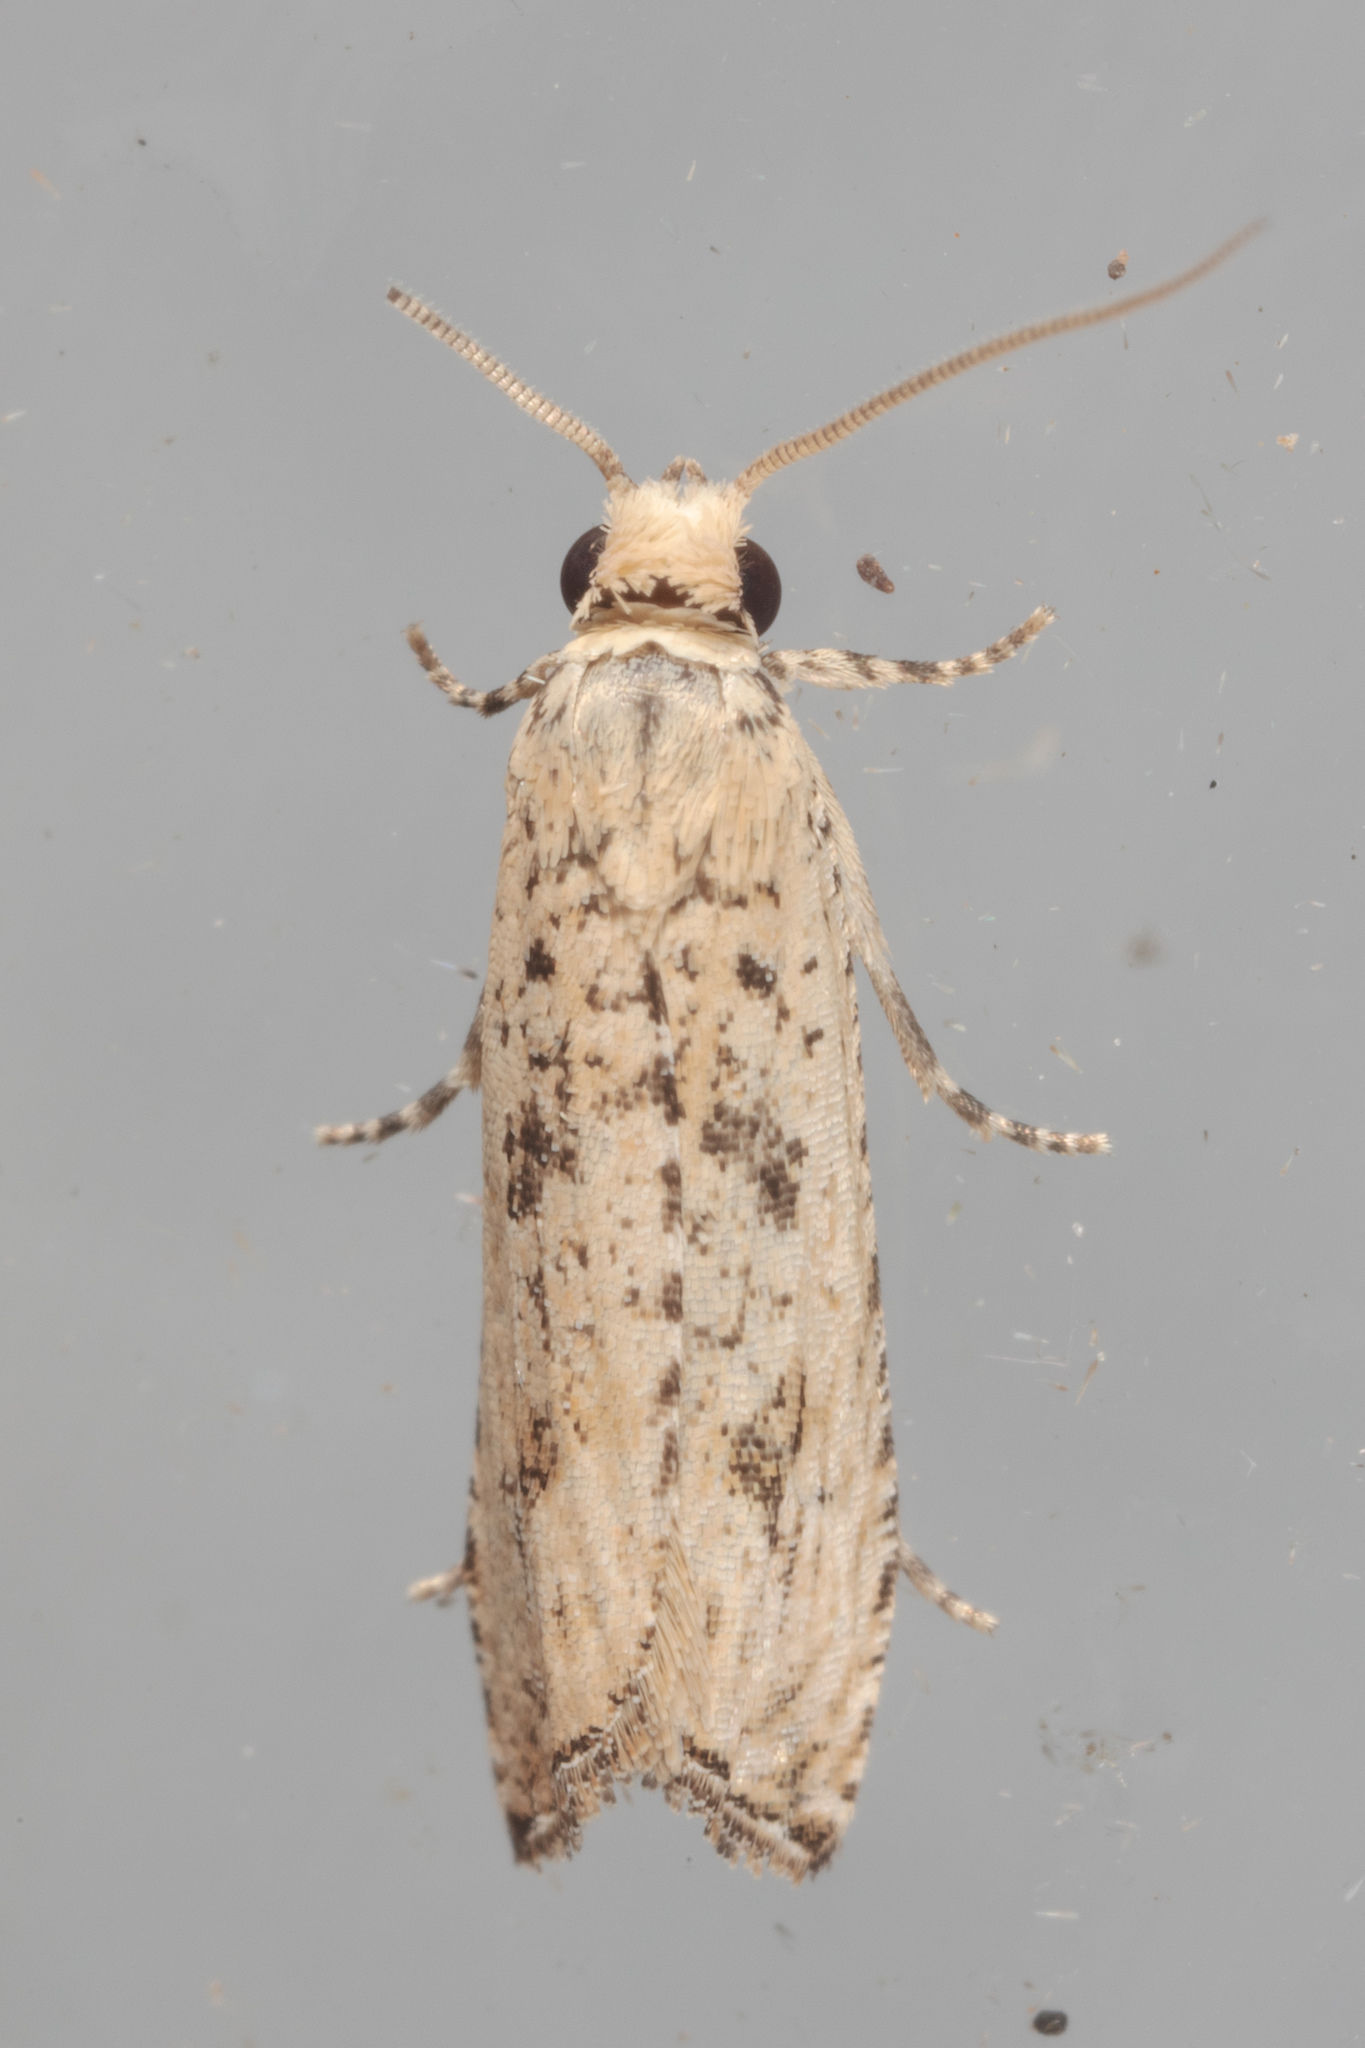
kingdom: Animalia
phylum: Arthropoda
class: Insecta
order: Lepidoptera
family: Tortricidae
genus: Bactra
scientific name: Bactra verutana
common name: Javelin moth
